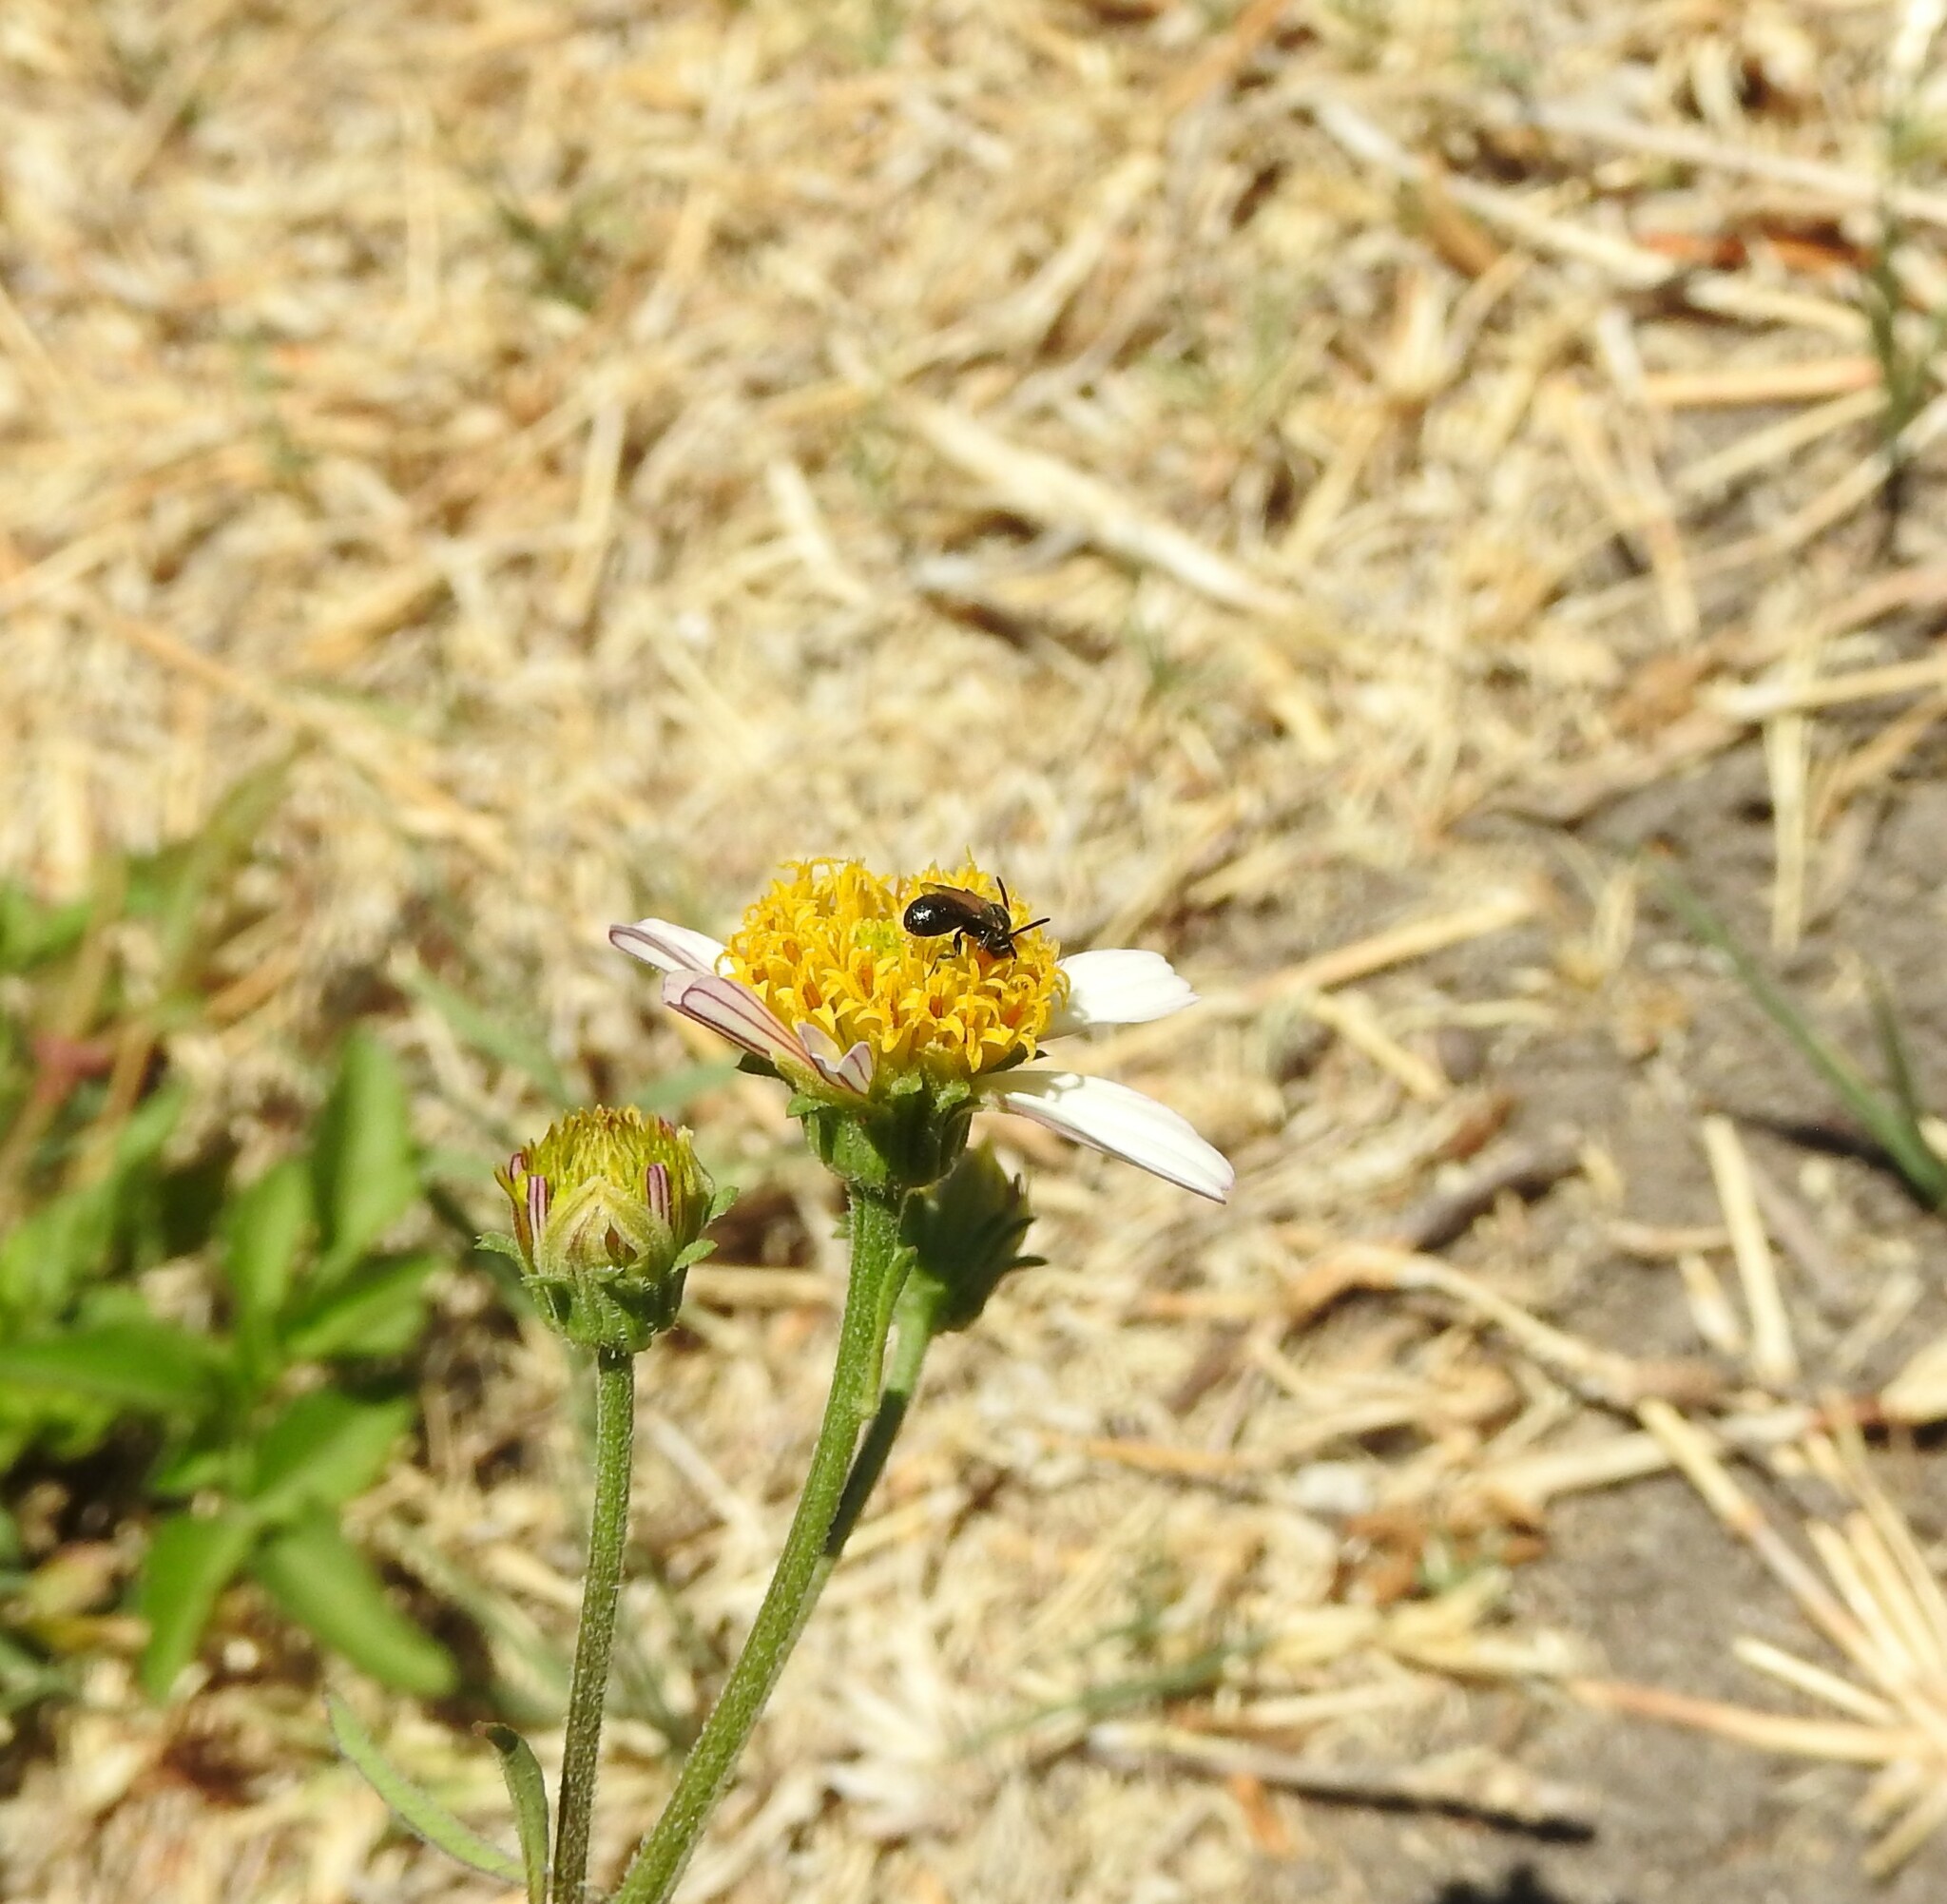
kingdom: Plantae
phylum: Tracheophyta
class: Magnoliopsida
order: Asterales
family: Asteraceae
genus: Bidens
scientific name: Bidens odorata
